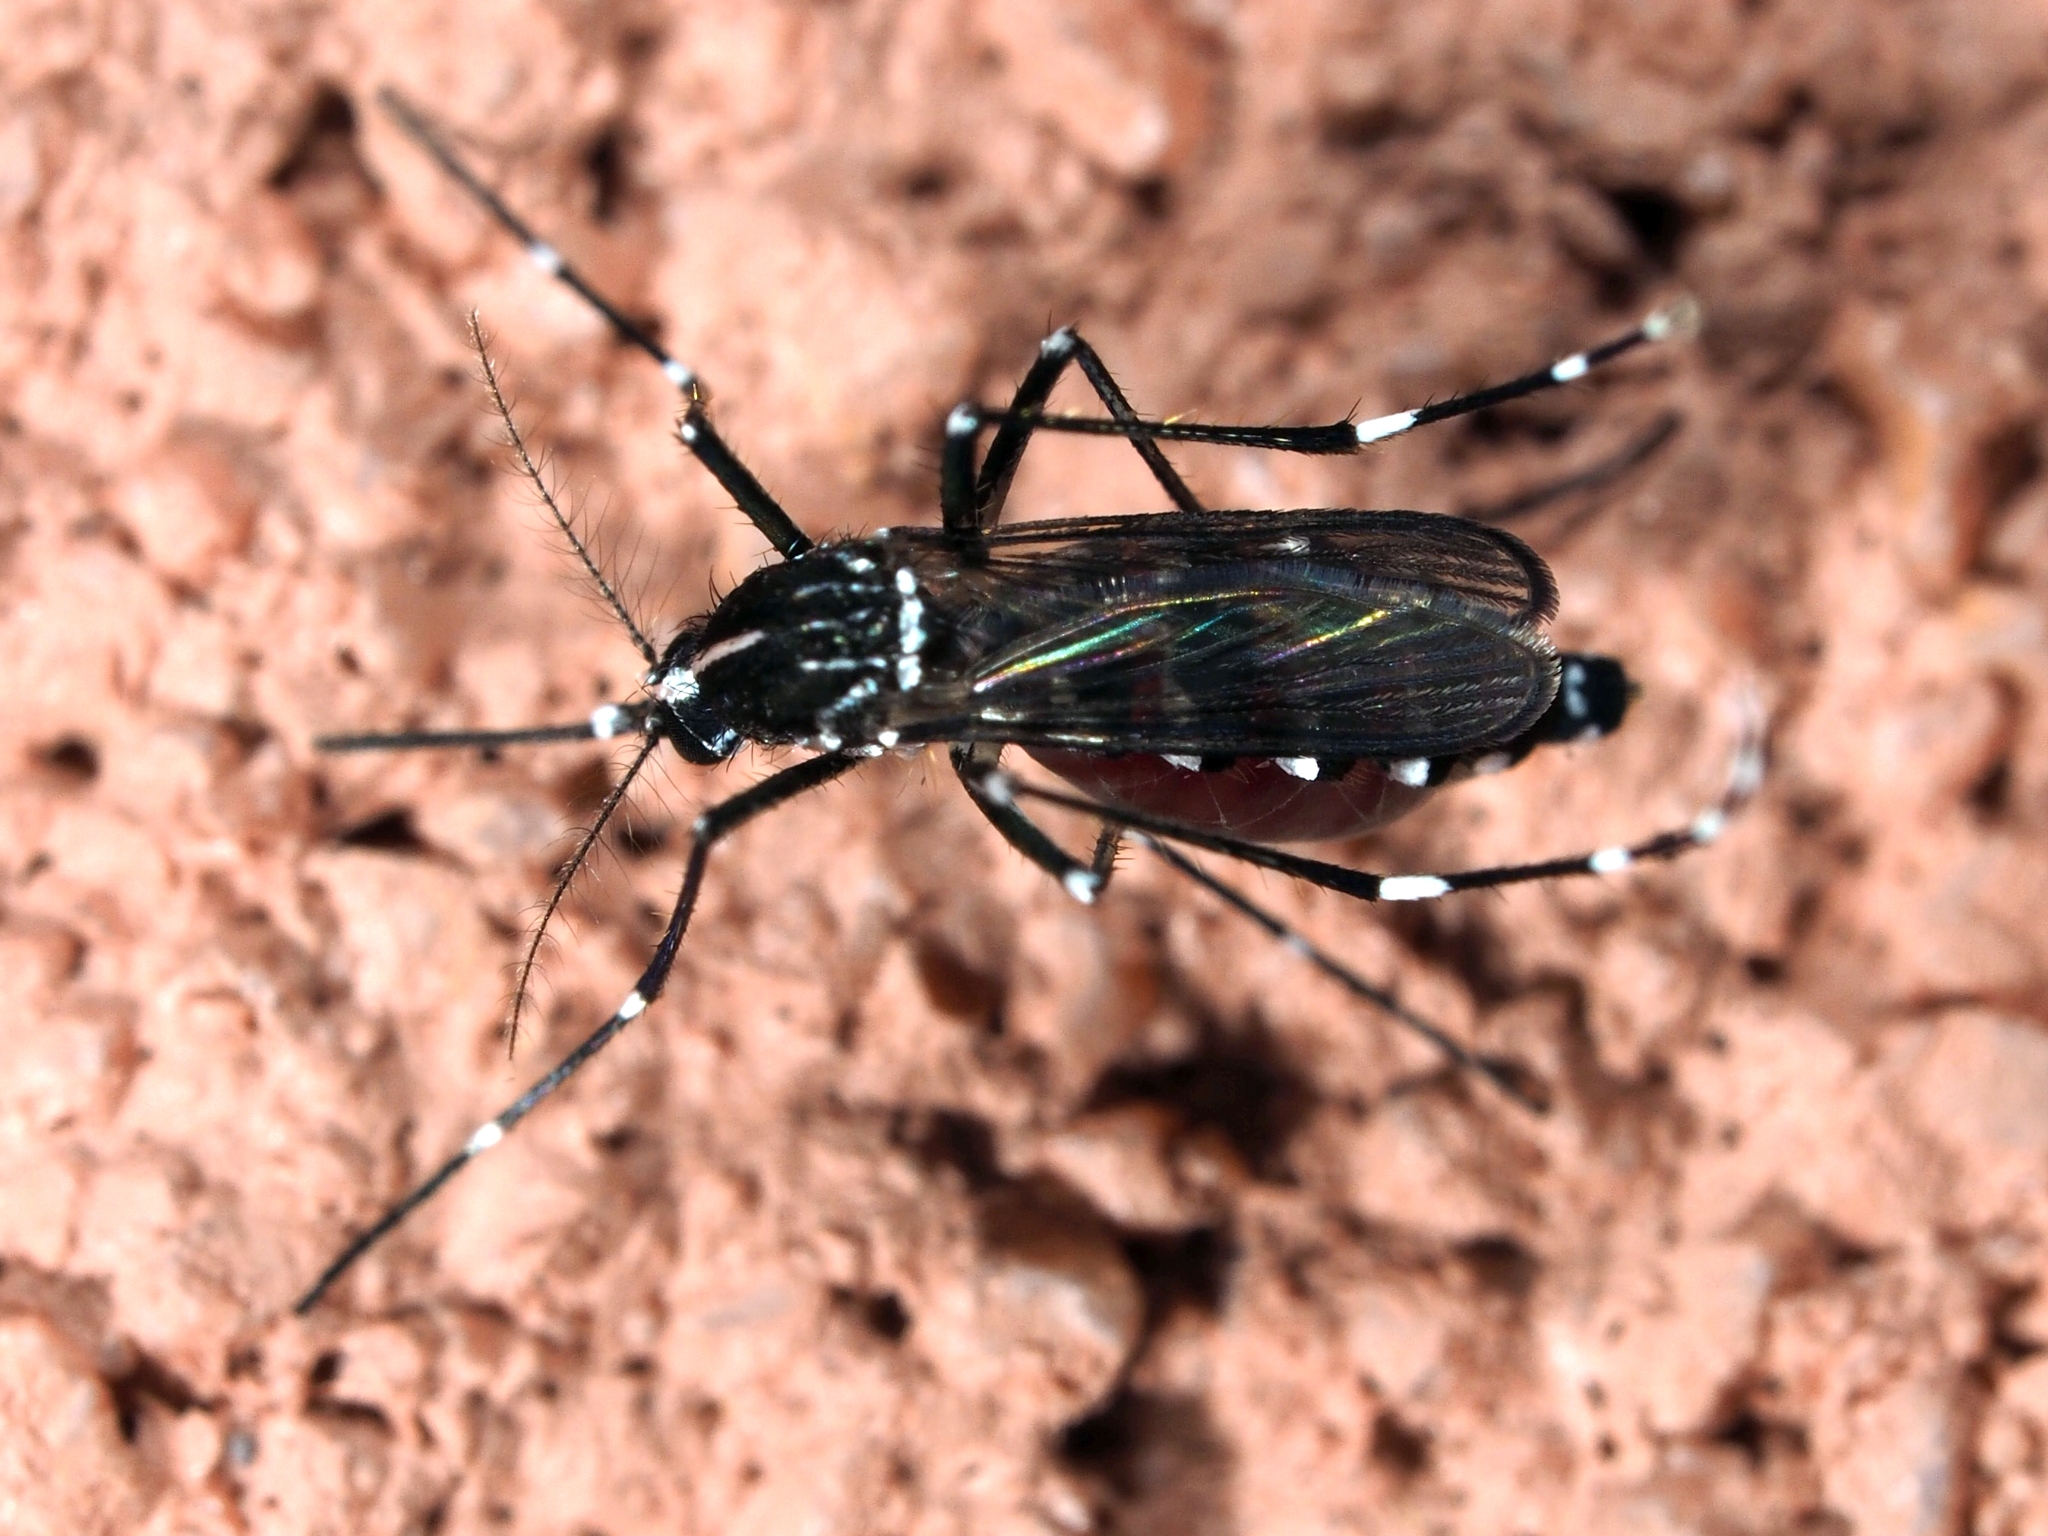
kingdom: Animalia
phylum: Arthropoda
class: Insecta
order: Diptera
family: Culicidae
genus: Aedes
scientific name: Aedes albopictus
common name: Tiger mosquito
